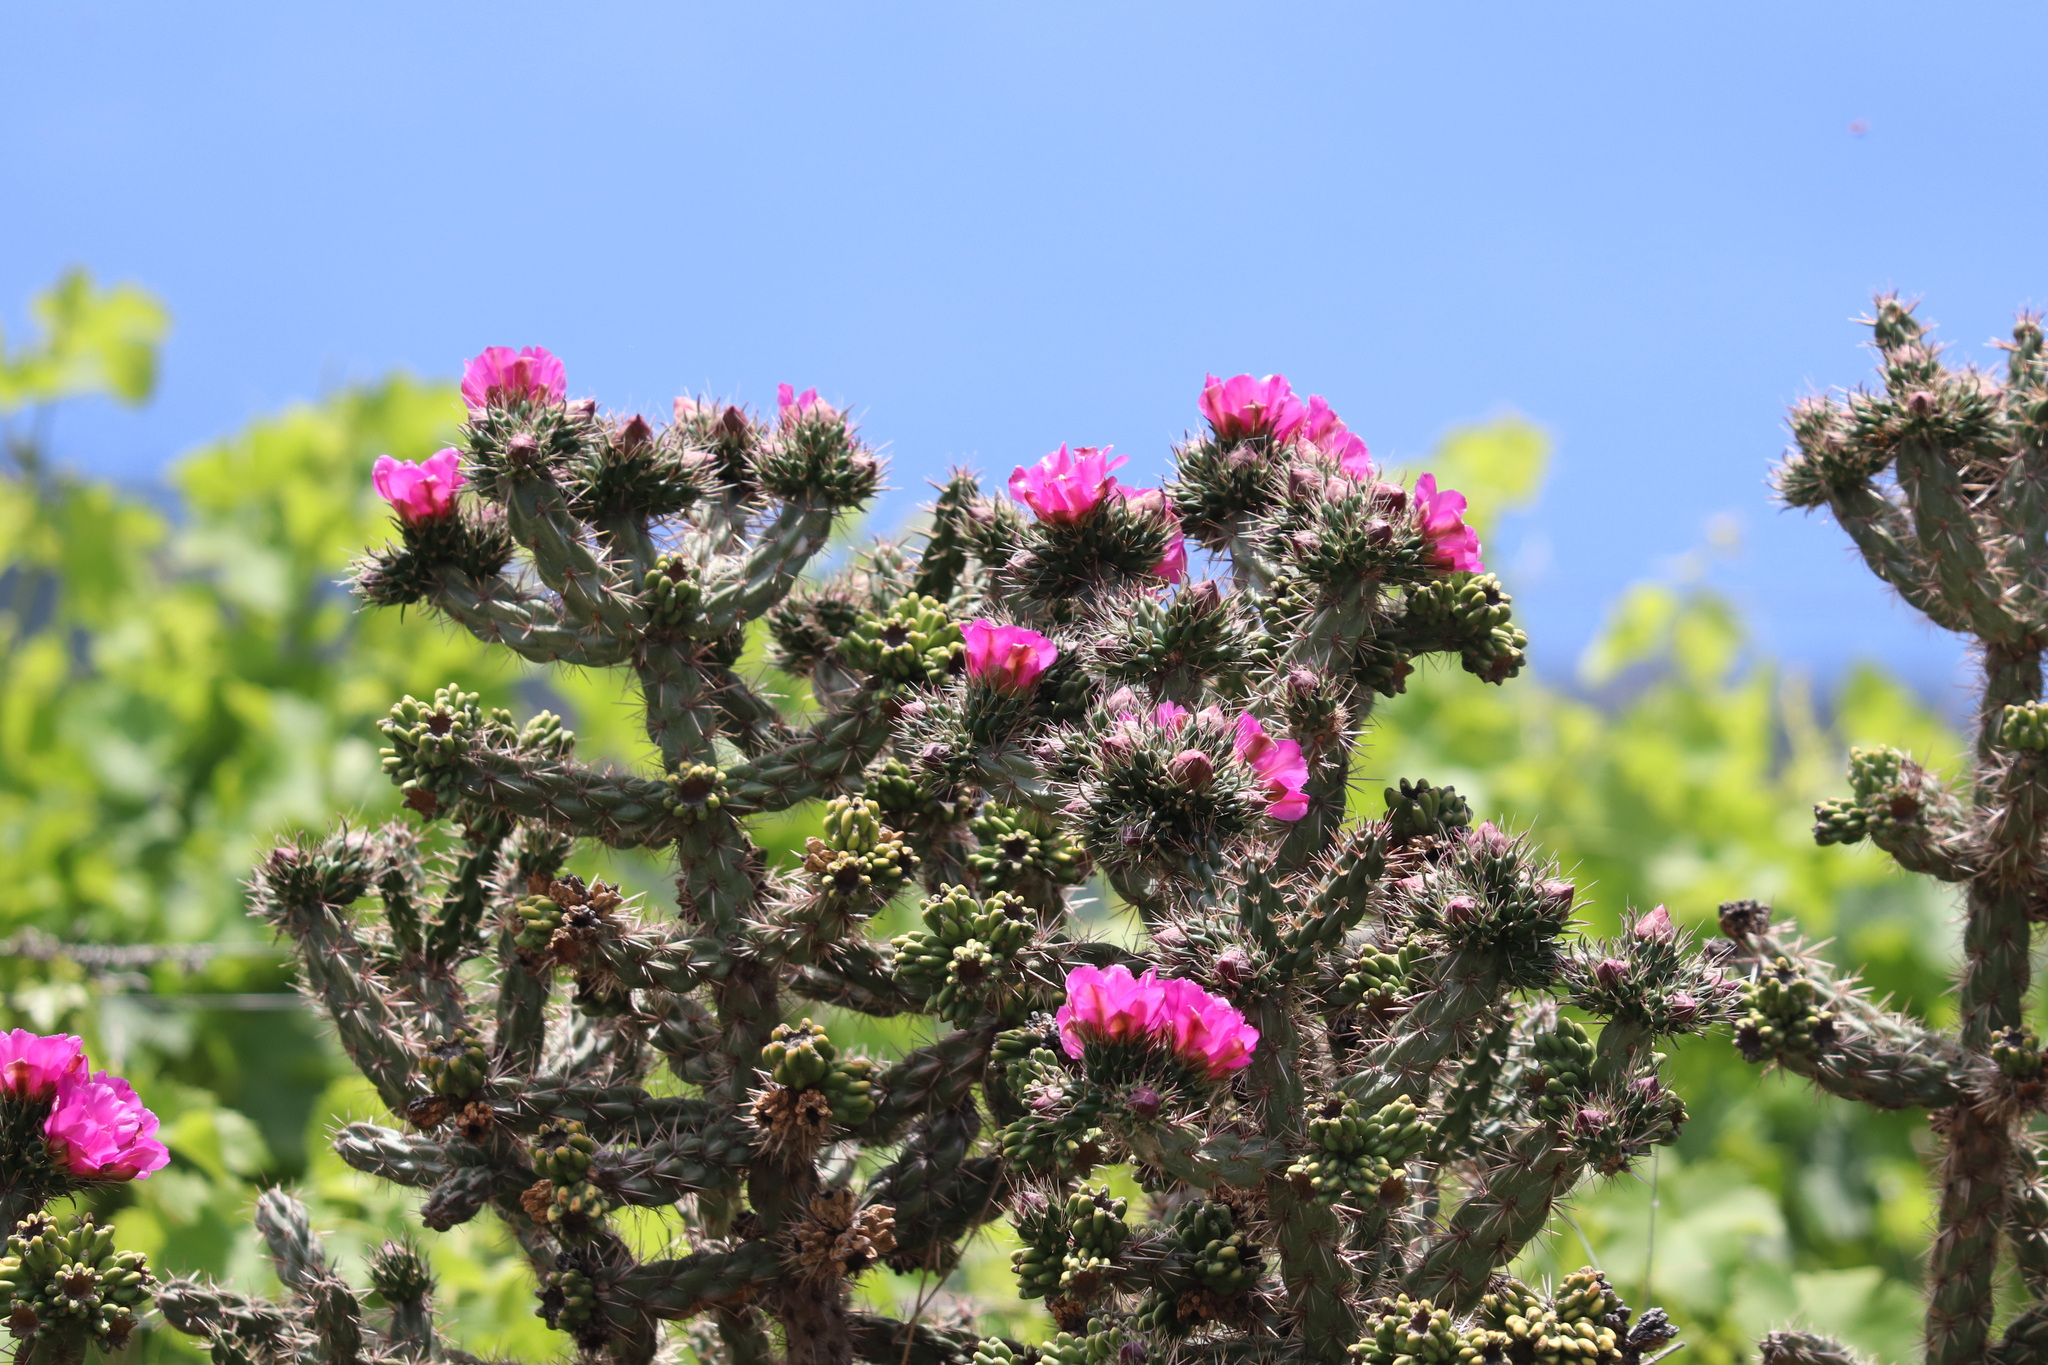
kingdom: Plantae
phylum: Tracheophyta
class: Magnoliopsida
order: Caryophyllales
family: Cactaceae
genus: Cylindropuntia
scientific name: Cylindropuntia imbricata
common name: Candelabrum cactus
